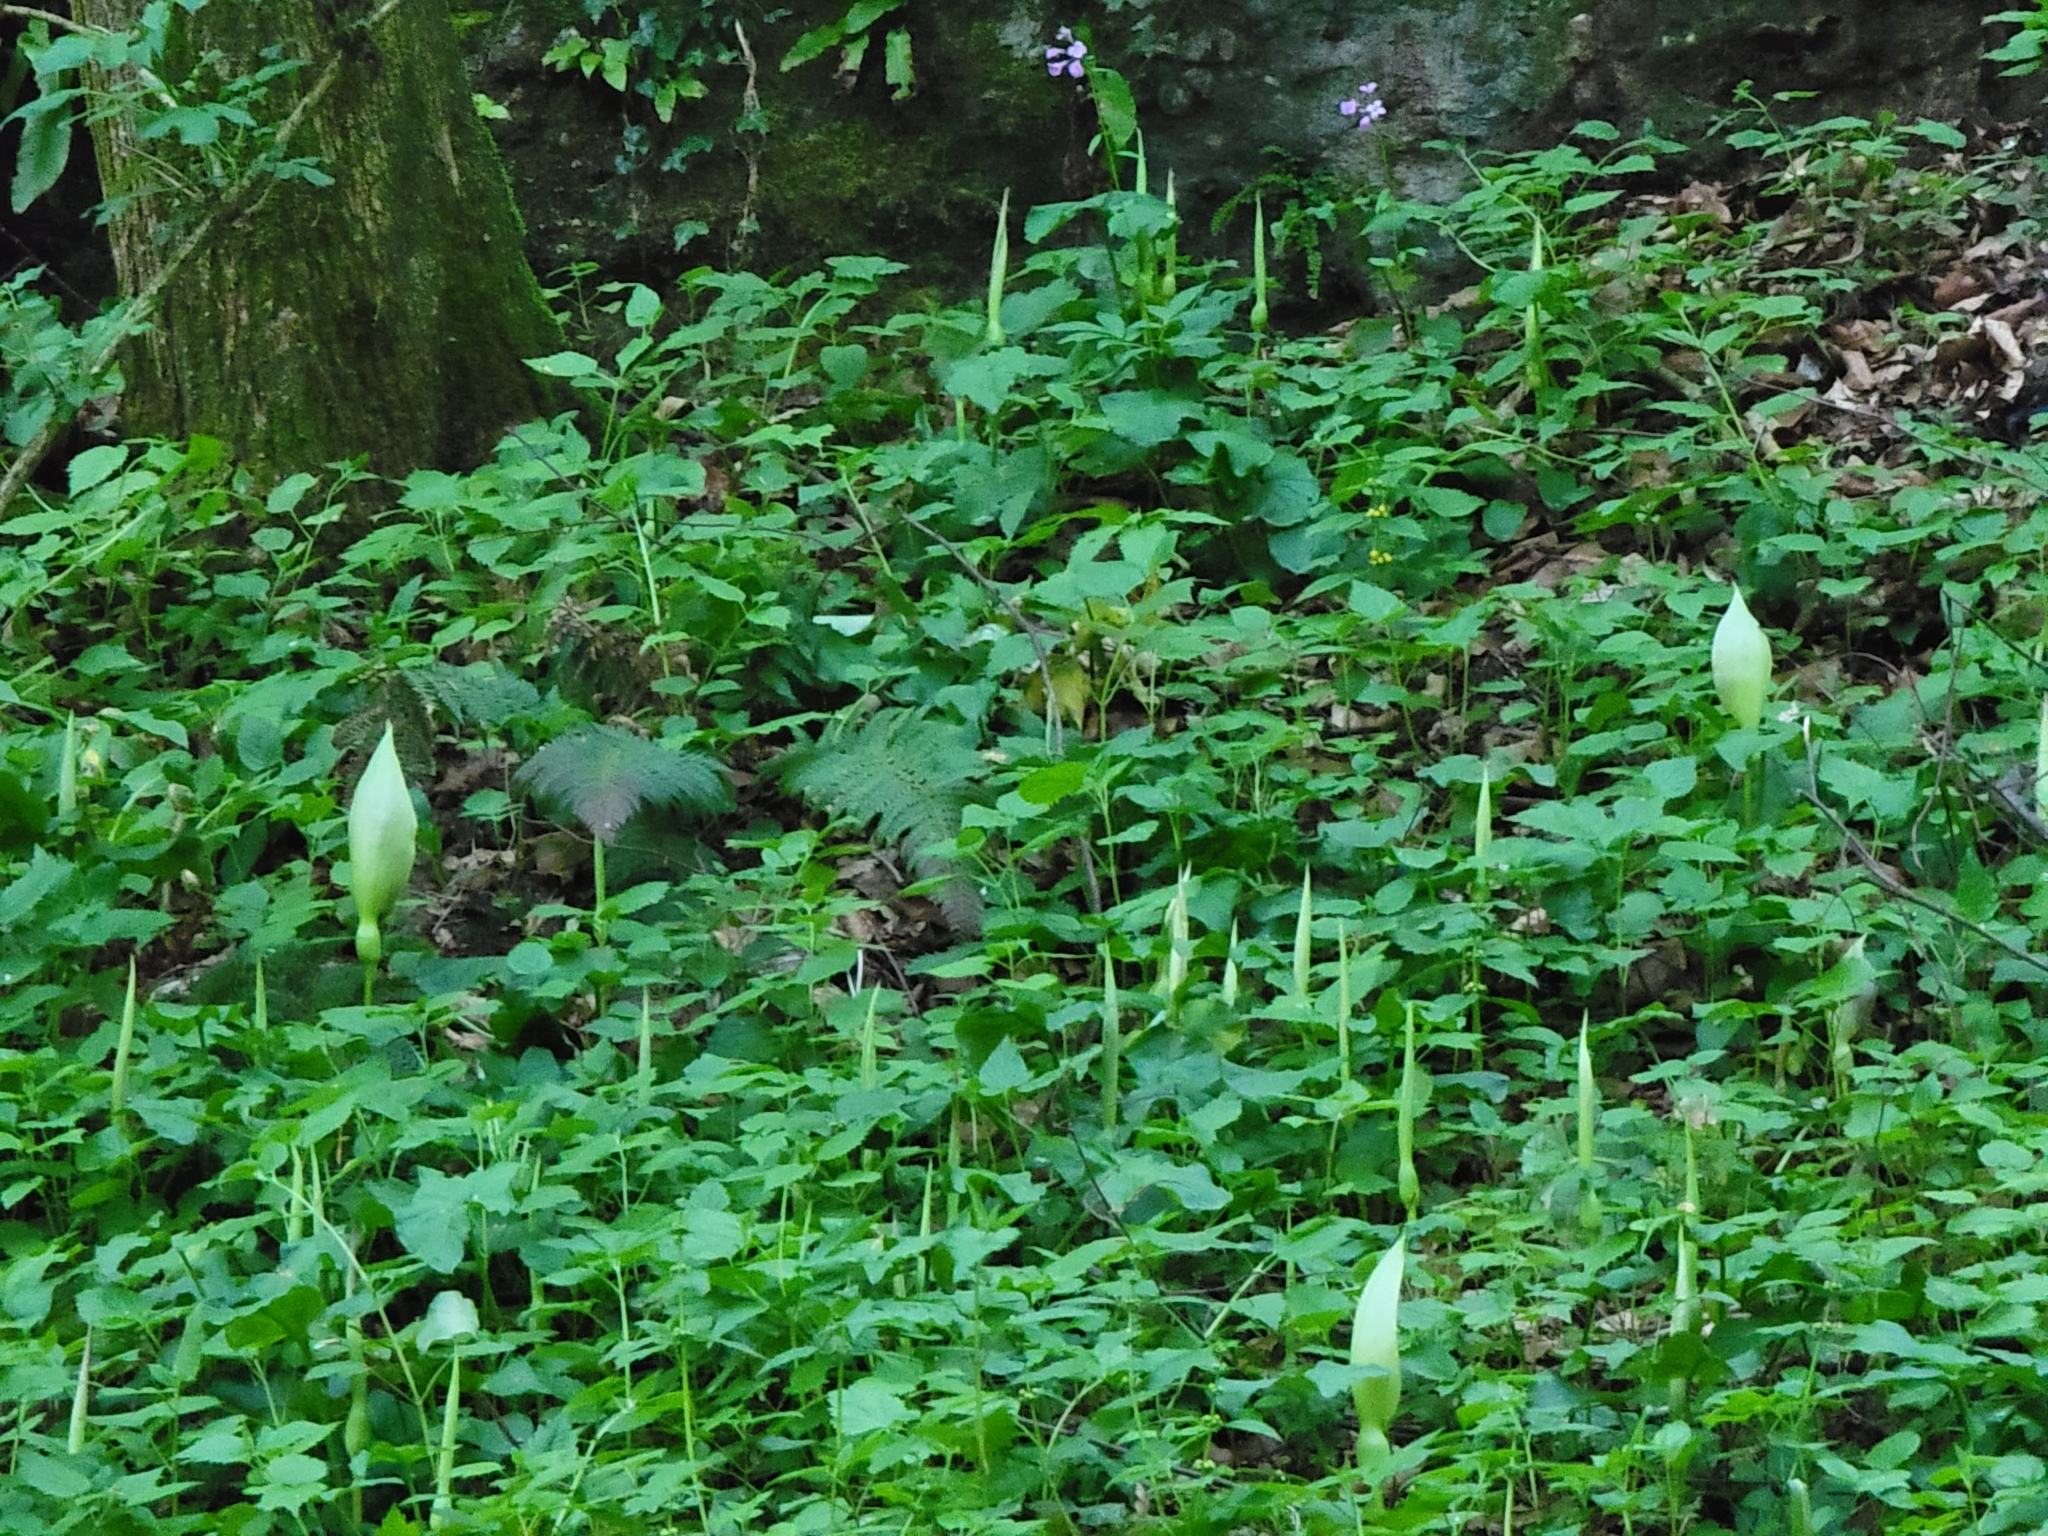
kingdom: Plantae
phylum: Tracheophyta
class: Liliopsida
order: Alismatales
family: Araceae
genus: Arum
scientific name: Arum maculatum
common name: Lords-and-ladies
